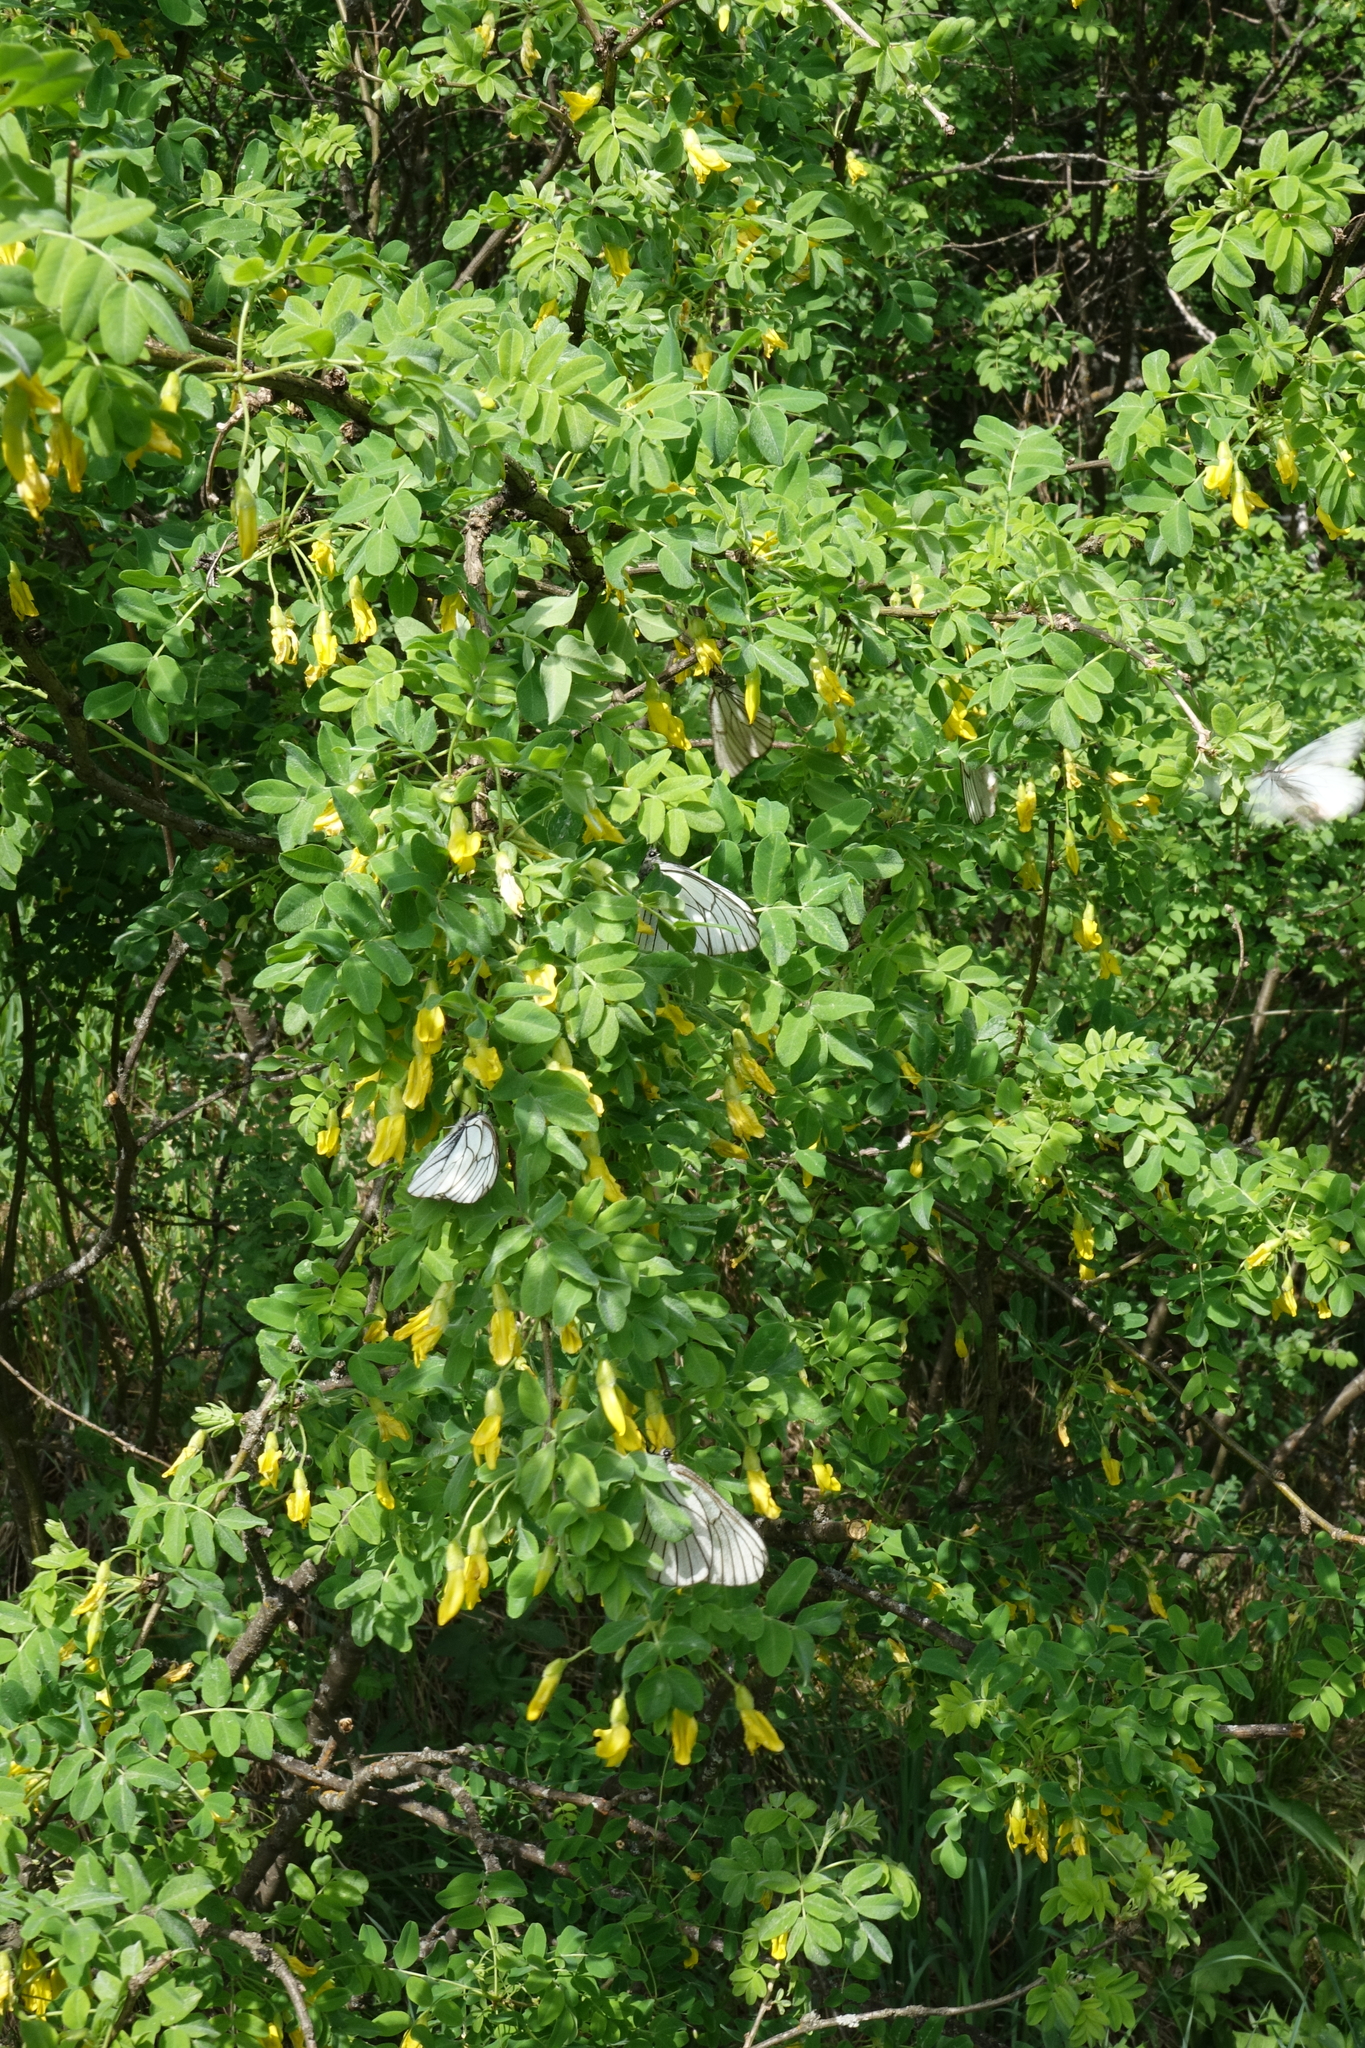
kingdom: Animalia
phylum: Arthropoda
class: Insecta
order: Lepidoptera
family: Pieridae
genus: Aporia
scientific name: Aporia crataegi
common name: Black-veined white
